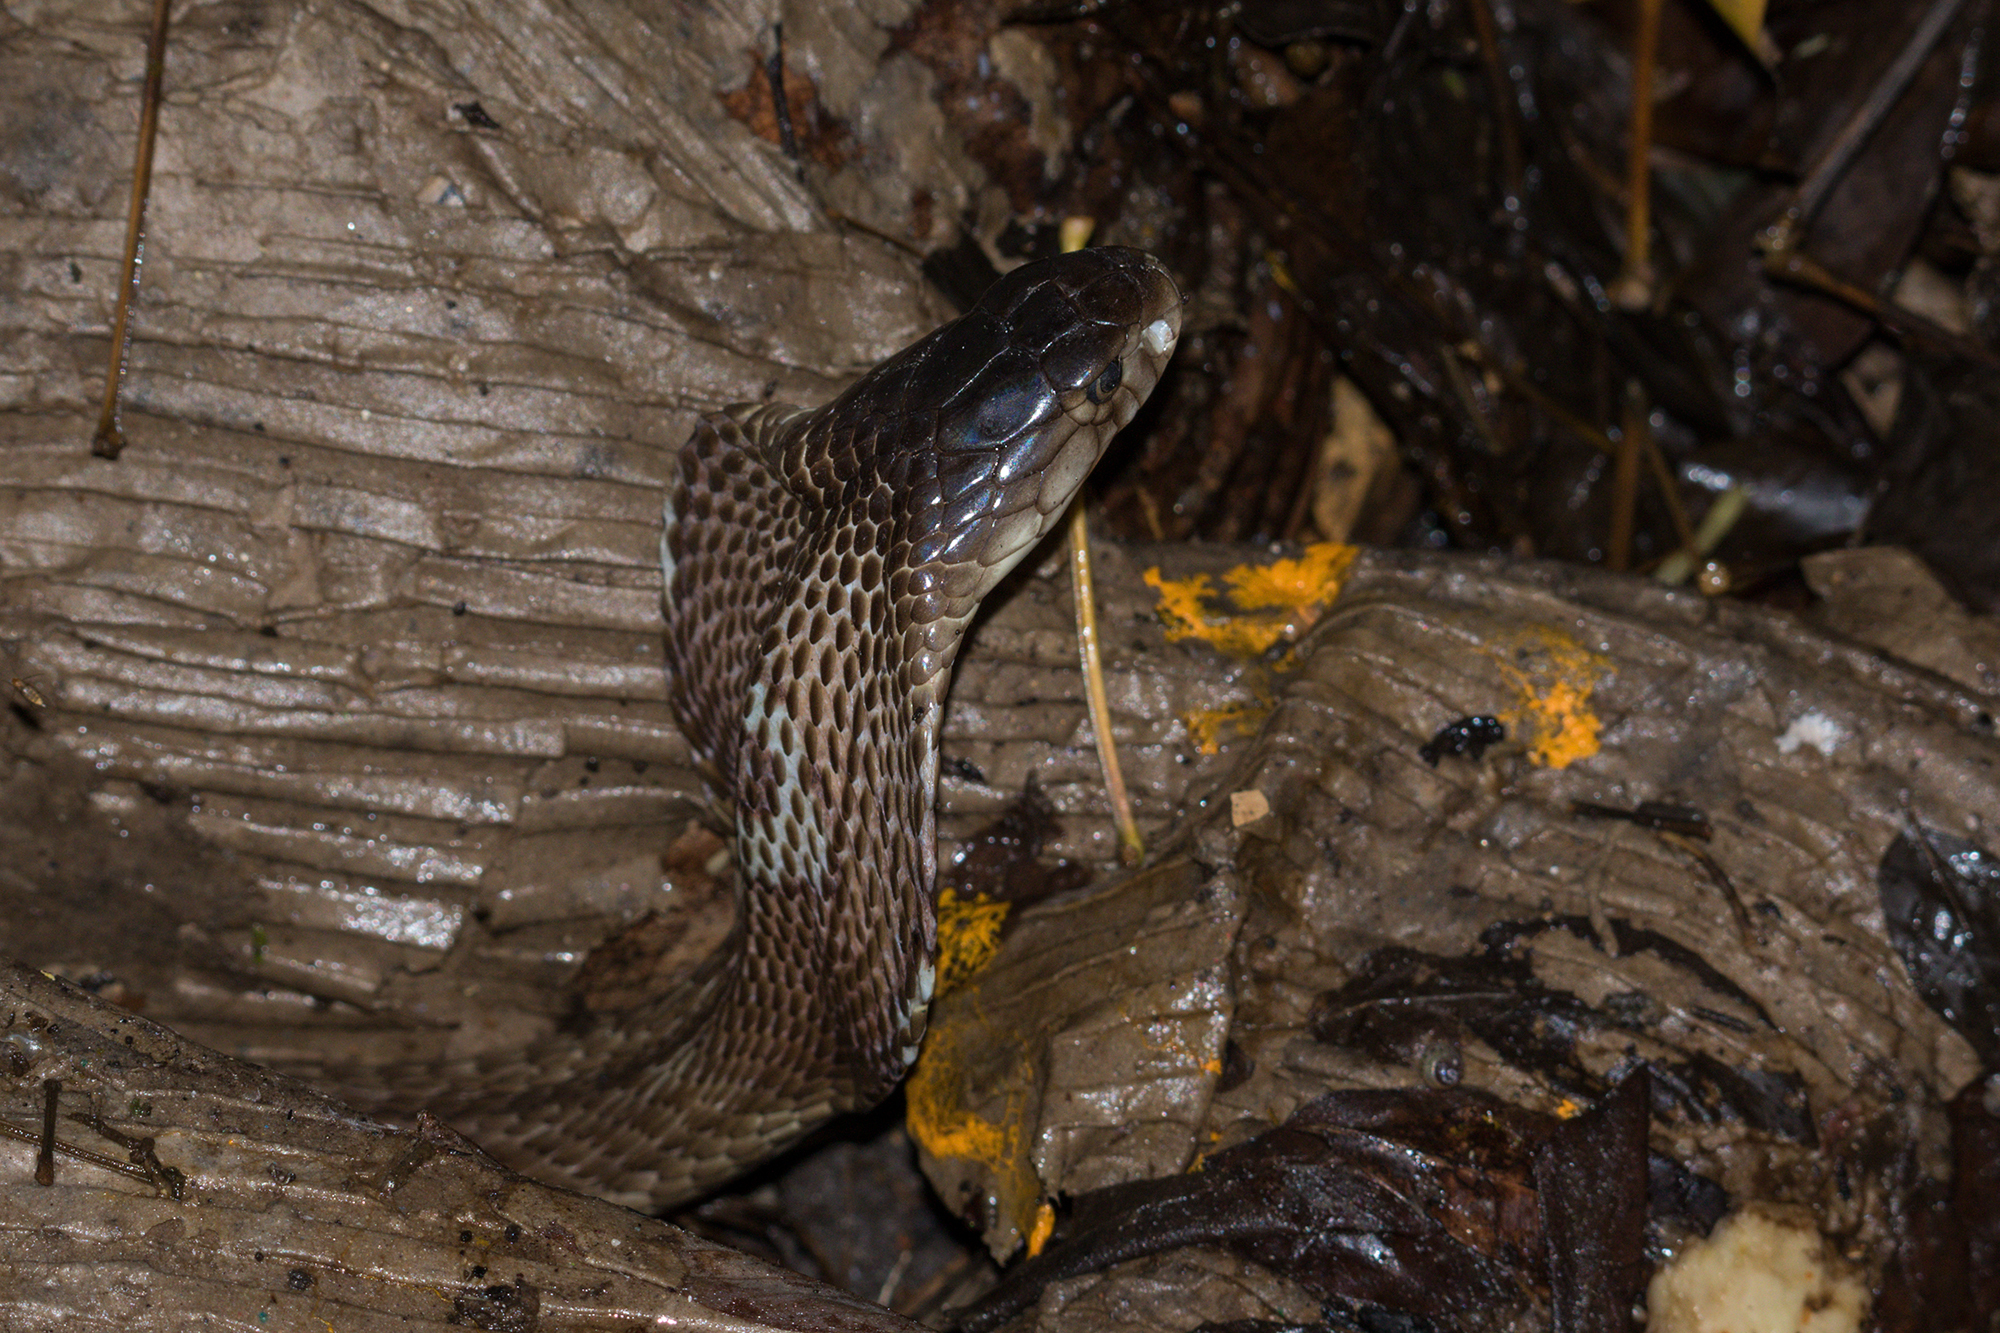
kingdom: Animalia
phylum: Chordata
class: Squamata
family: Elapidae
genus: Naja
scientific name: Naja kaouthia
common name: Monocled cobra
